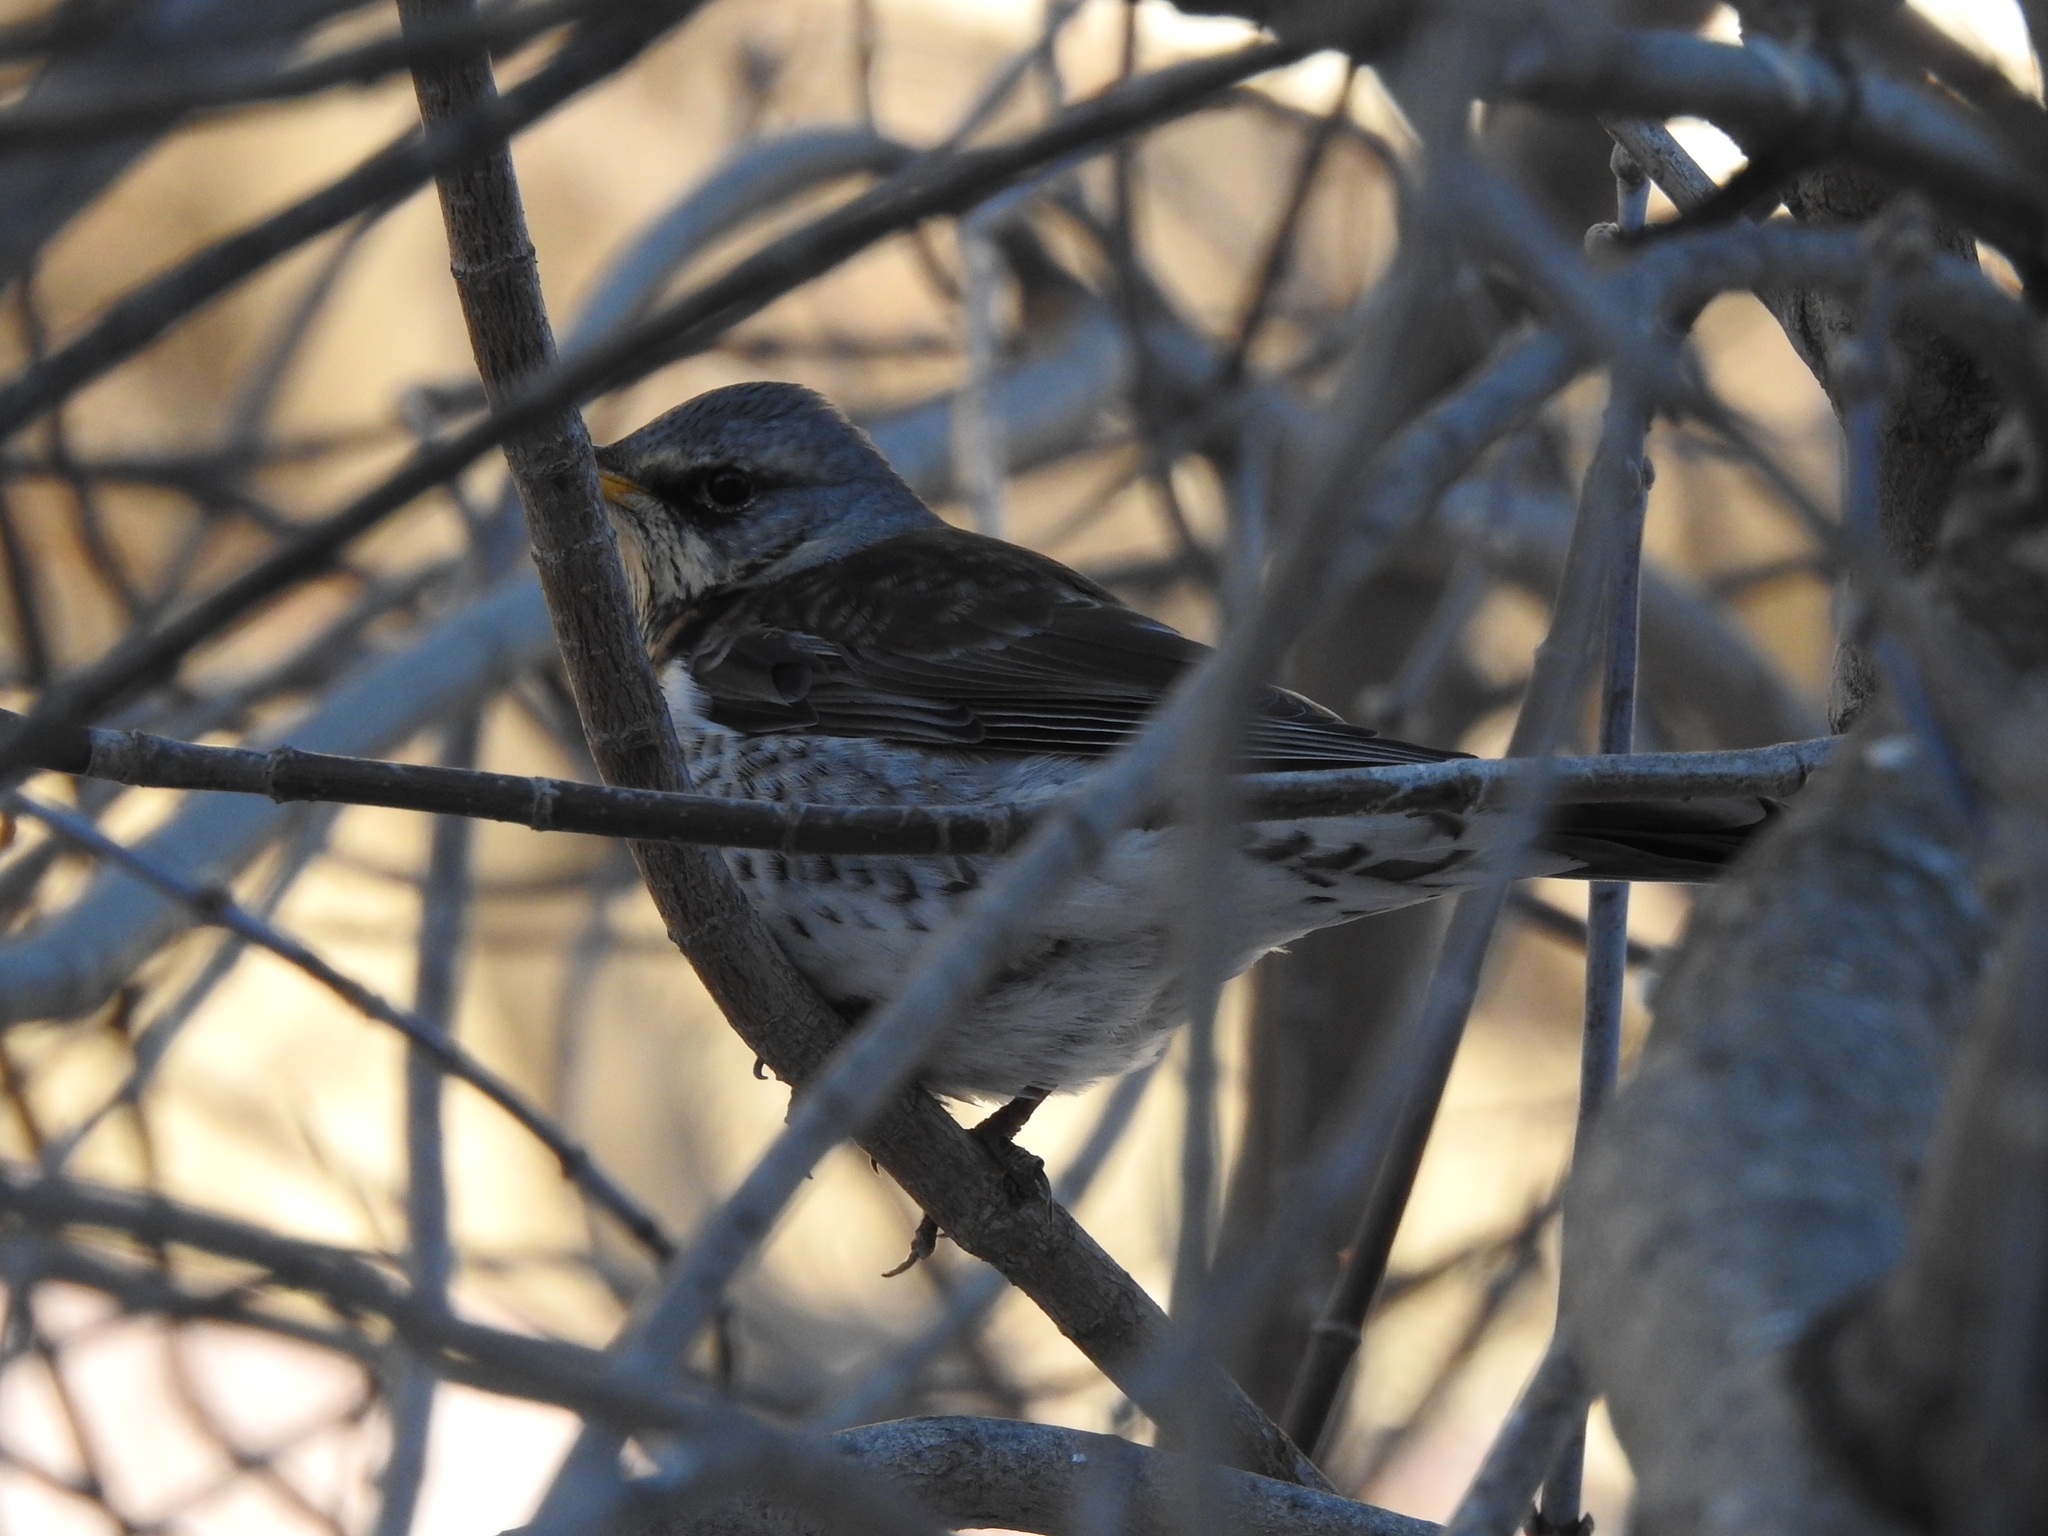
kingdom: Animalia
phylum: Chordata
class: Aves
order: Passeriformes
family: Turdidae
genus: Turdus
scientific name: Turdus pilaris
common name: Fieldfare
